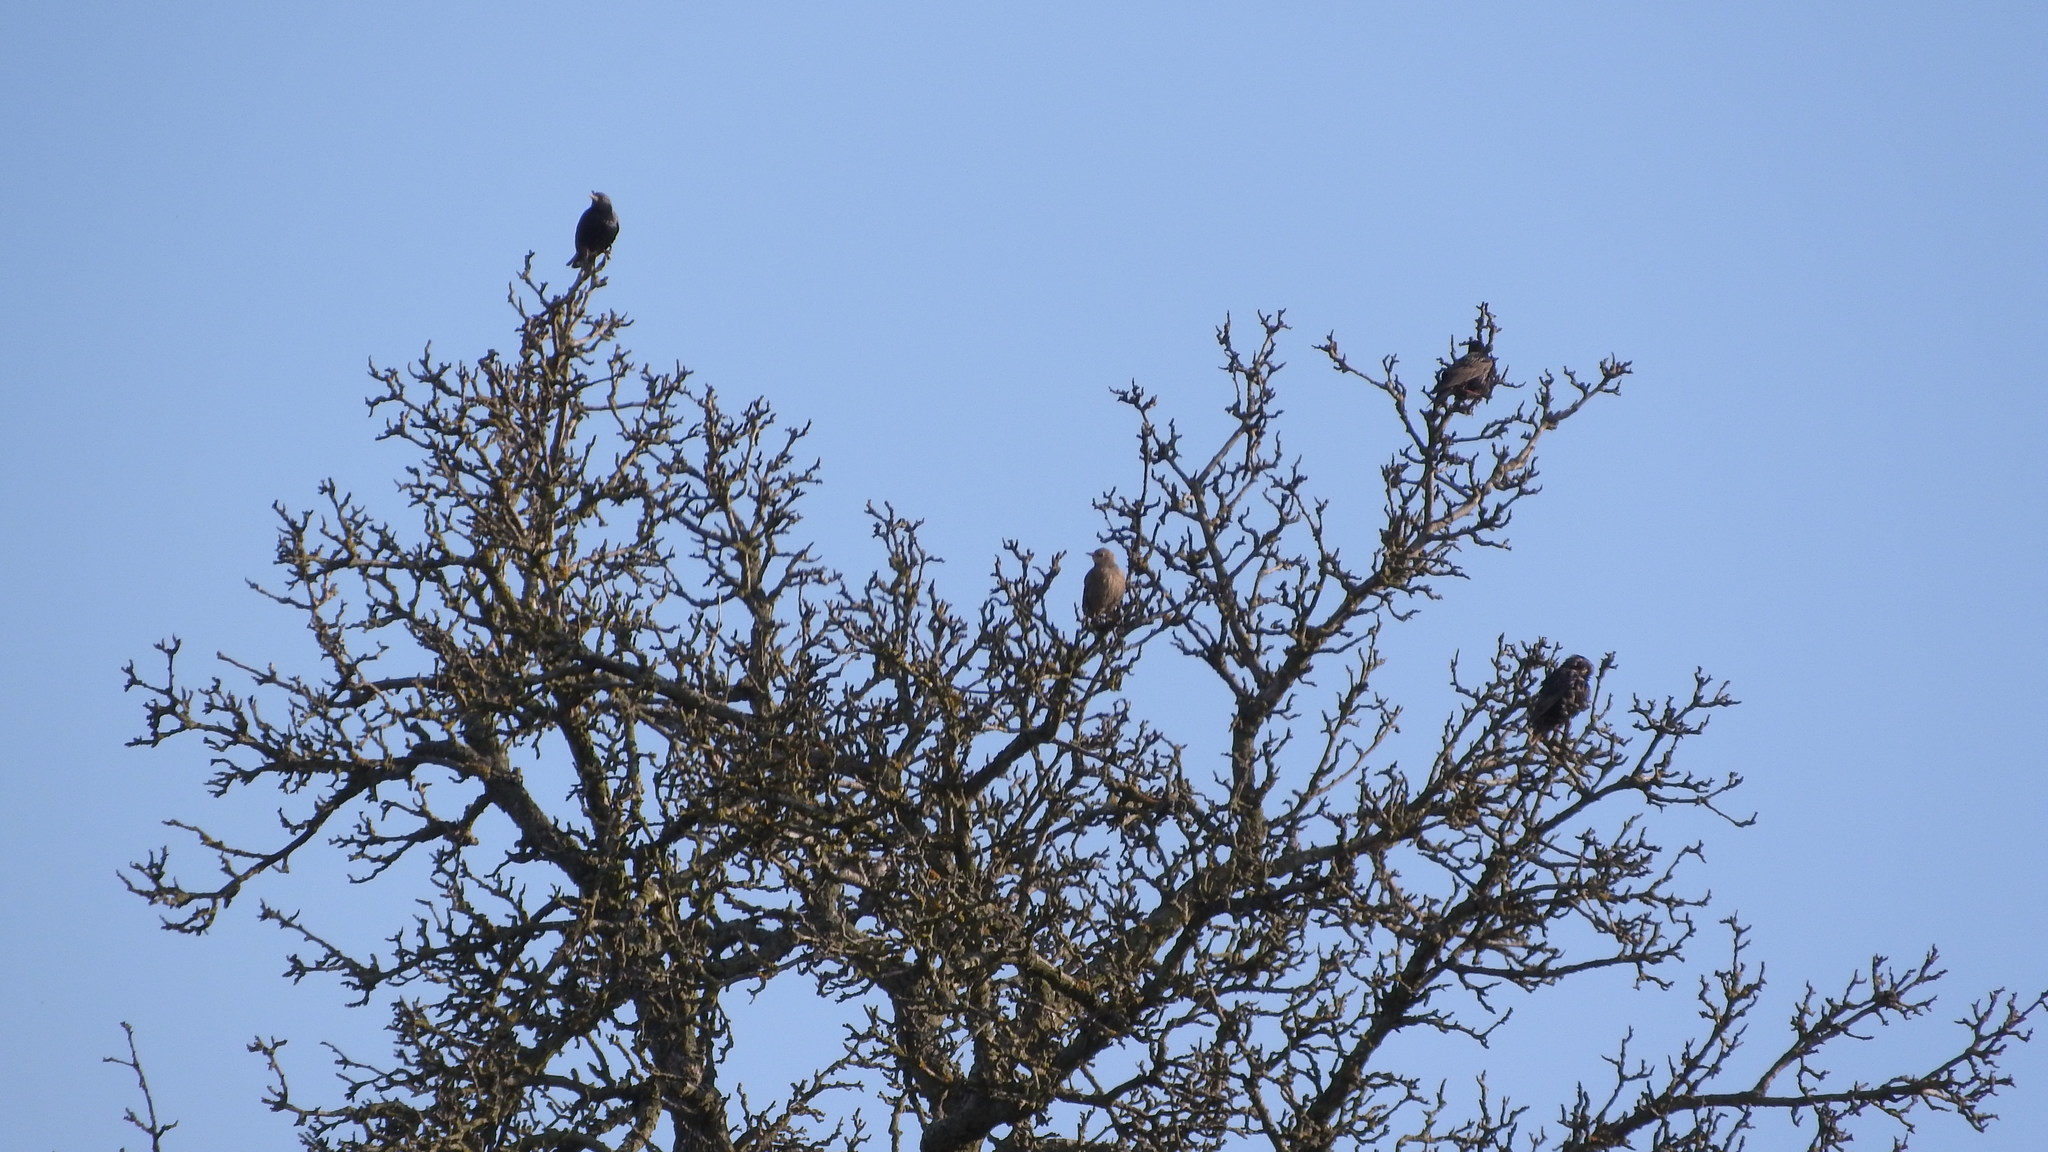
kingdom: Animalia
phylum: Chordata
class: Aves
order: Passeriformes
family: Sturnidae
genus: Sturnus
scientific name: Sturnus vulgaris
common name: Common starling
